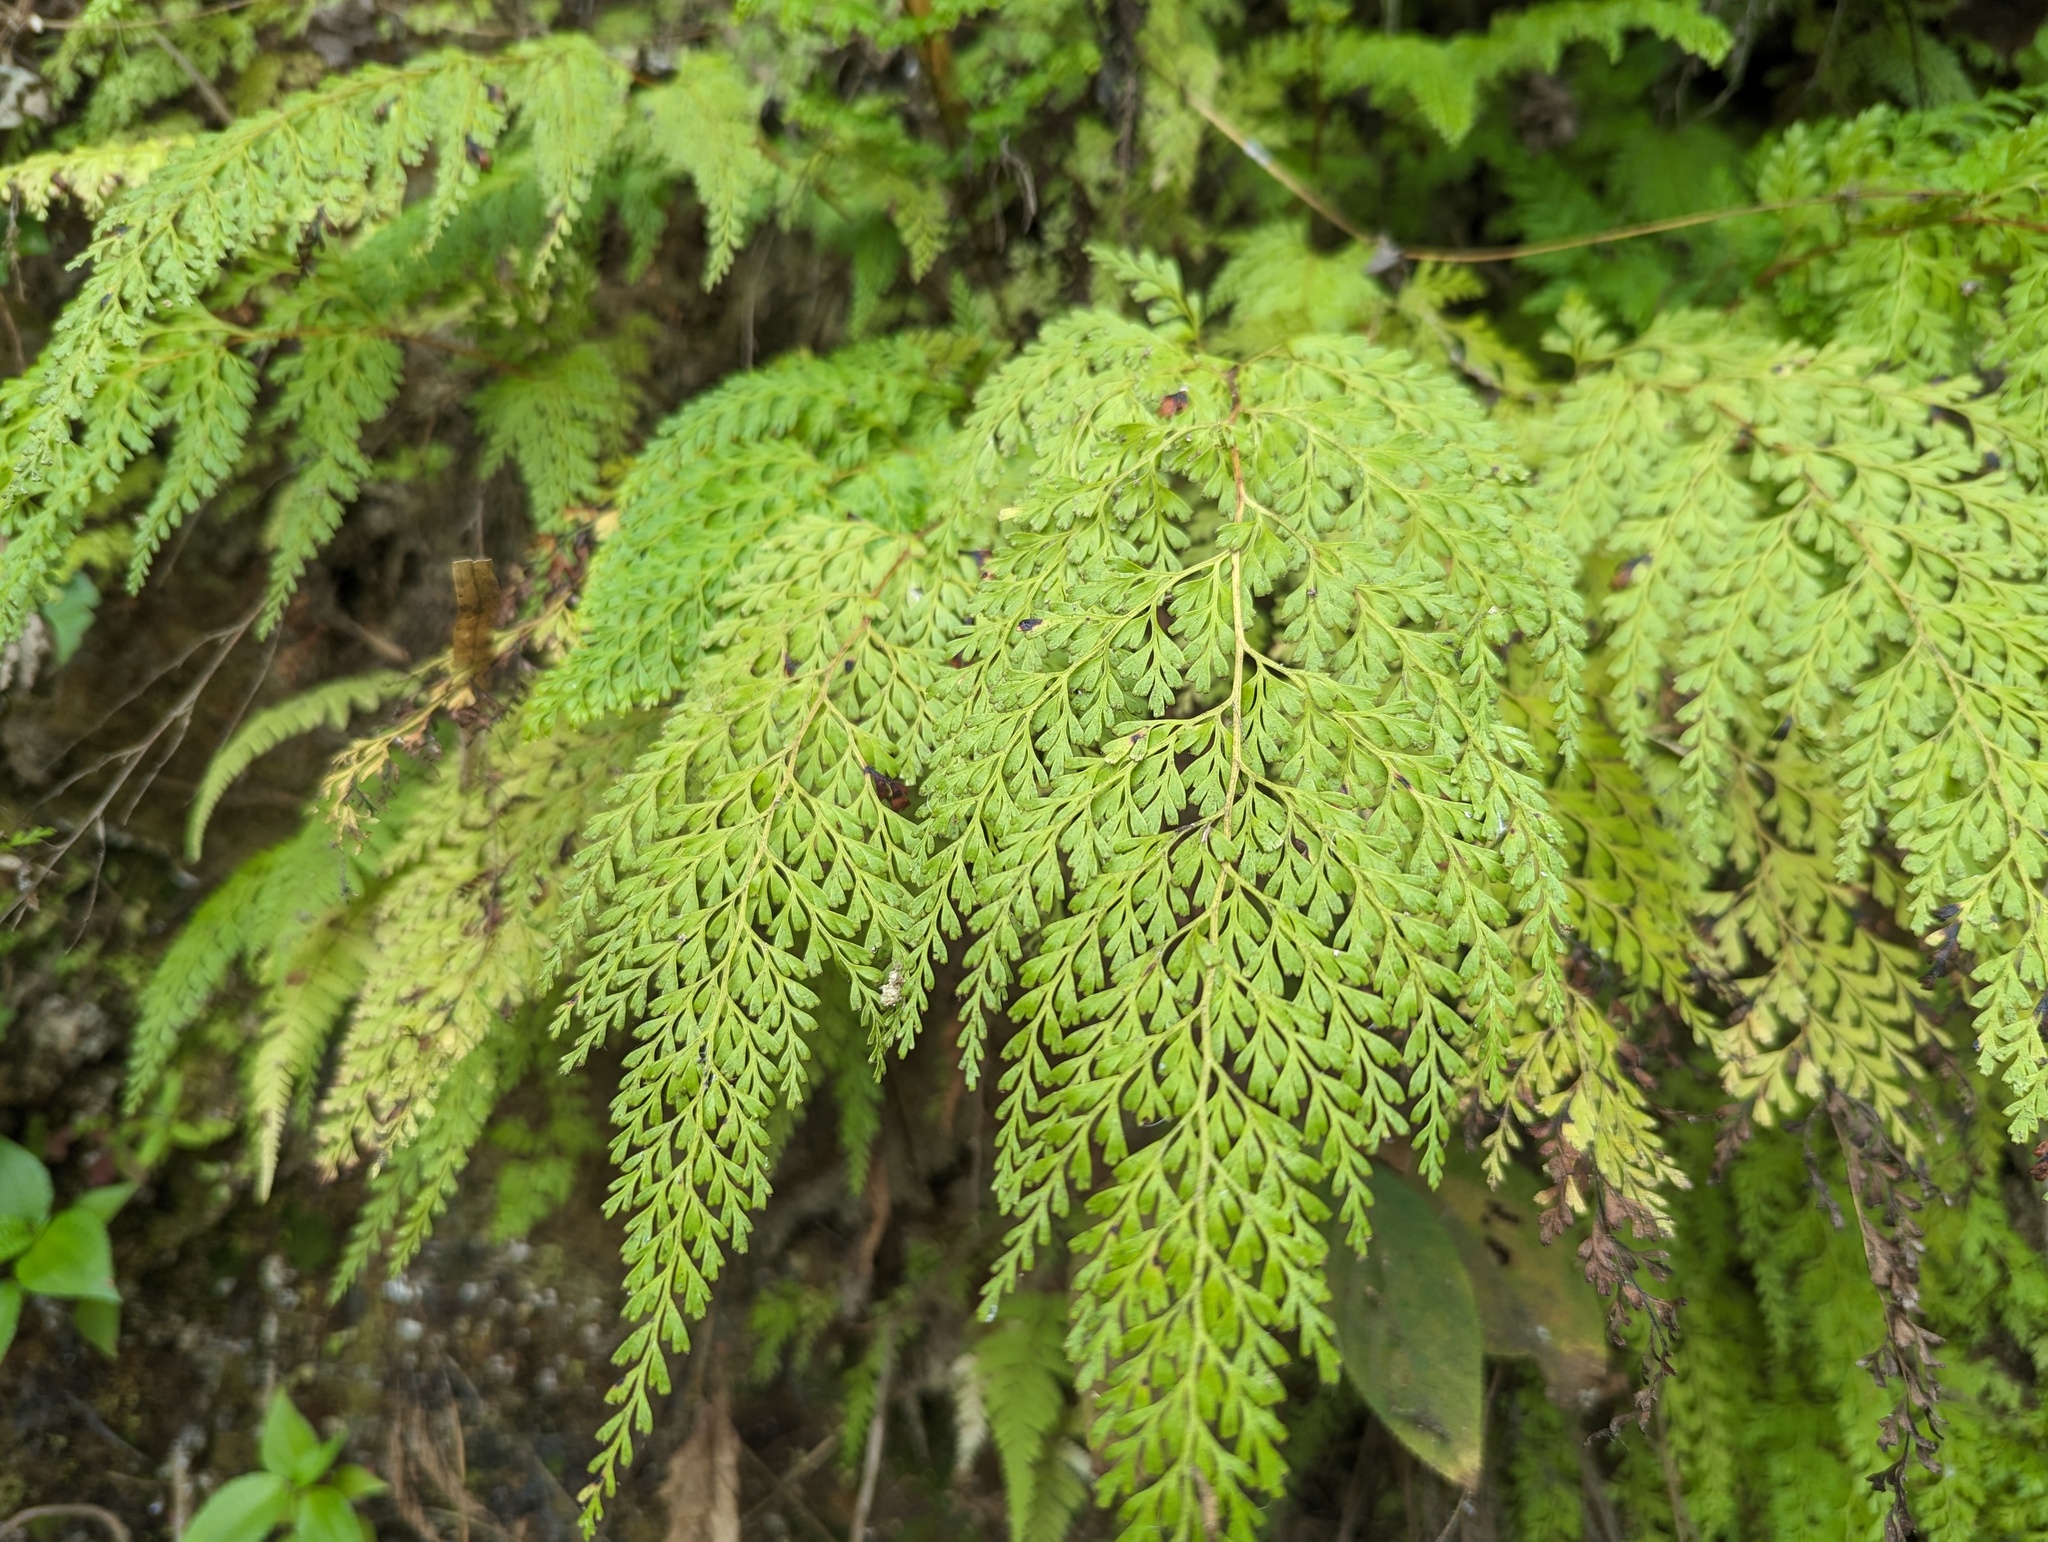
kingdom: Plantae
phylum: Tracheophyta
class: Polypodiopsida
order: Polypodiales
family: Lindsaeaceae
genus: Odontosoria
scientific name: Odontosoria chinensis
